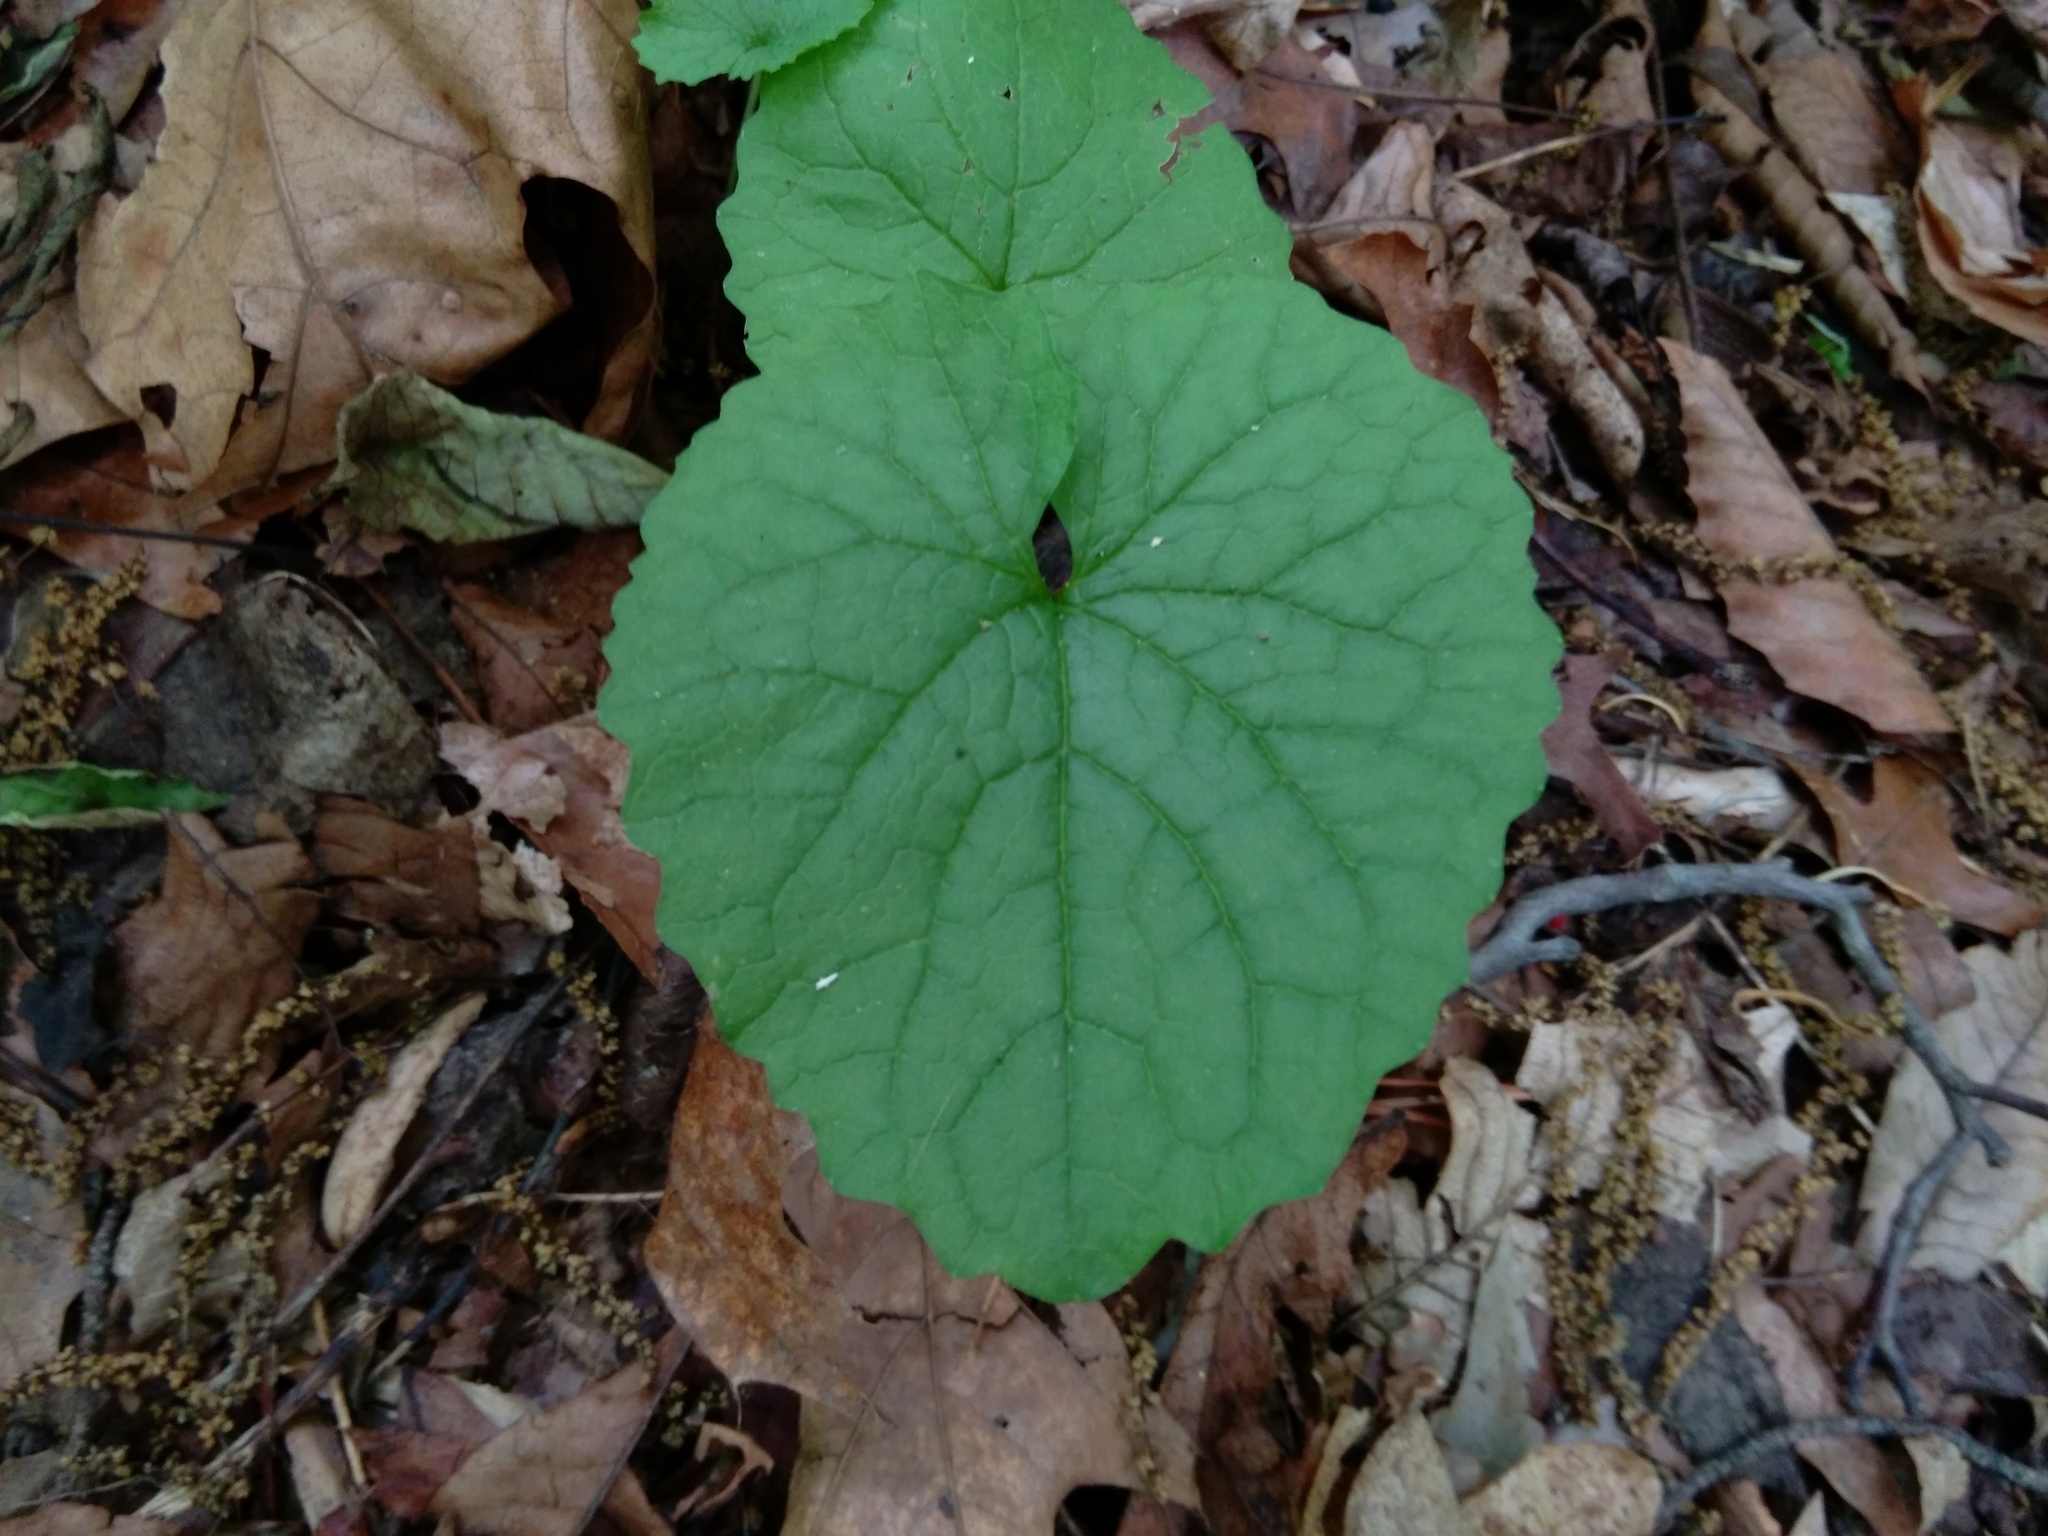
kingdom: Plantae
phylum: Tracheophyta
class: Magnoliopsida
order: Brassicales
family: Brassicaceae
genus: Alliaria
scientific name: Alliaria petiolata
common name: Garlic mustard
